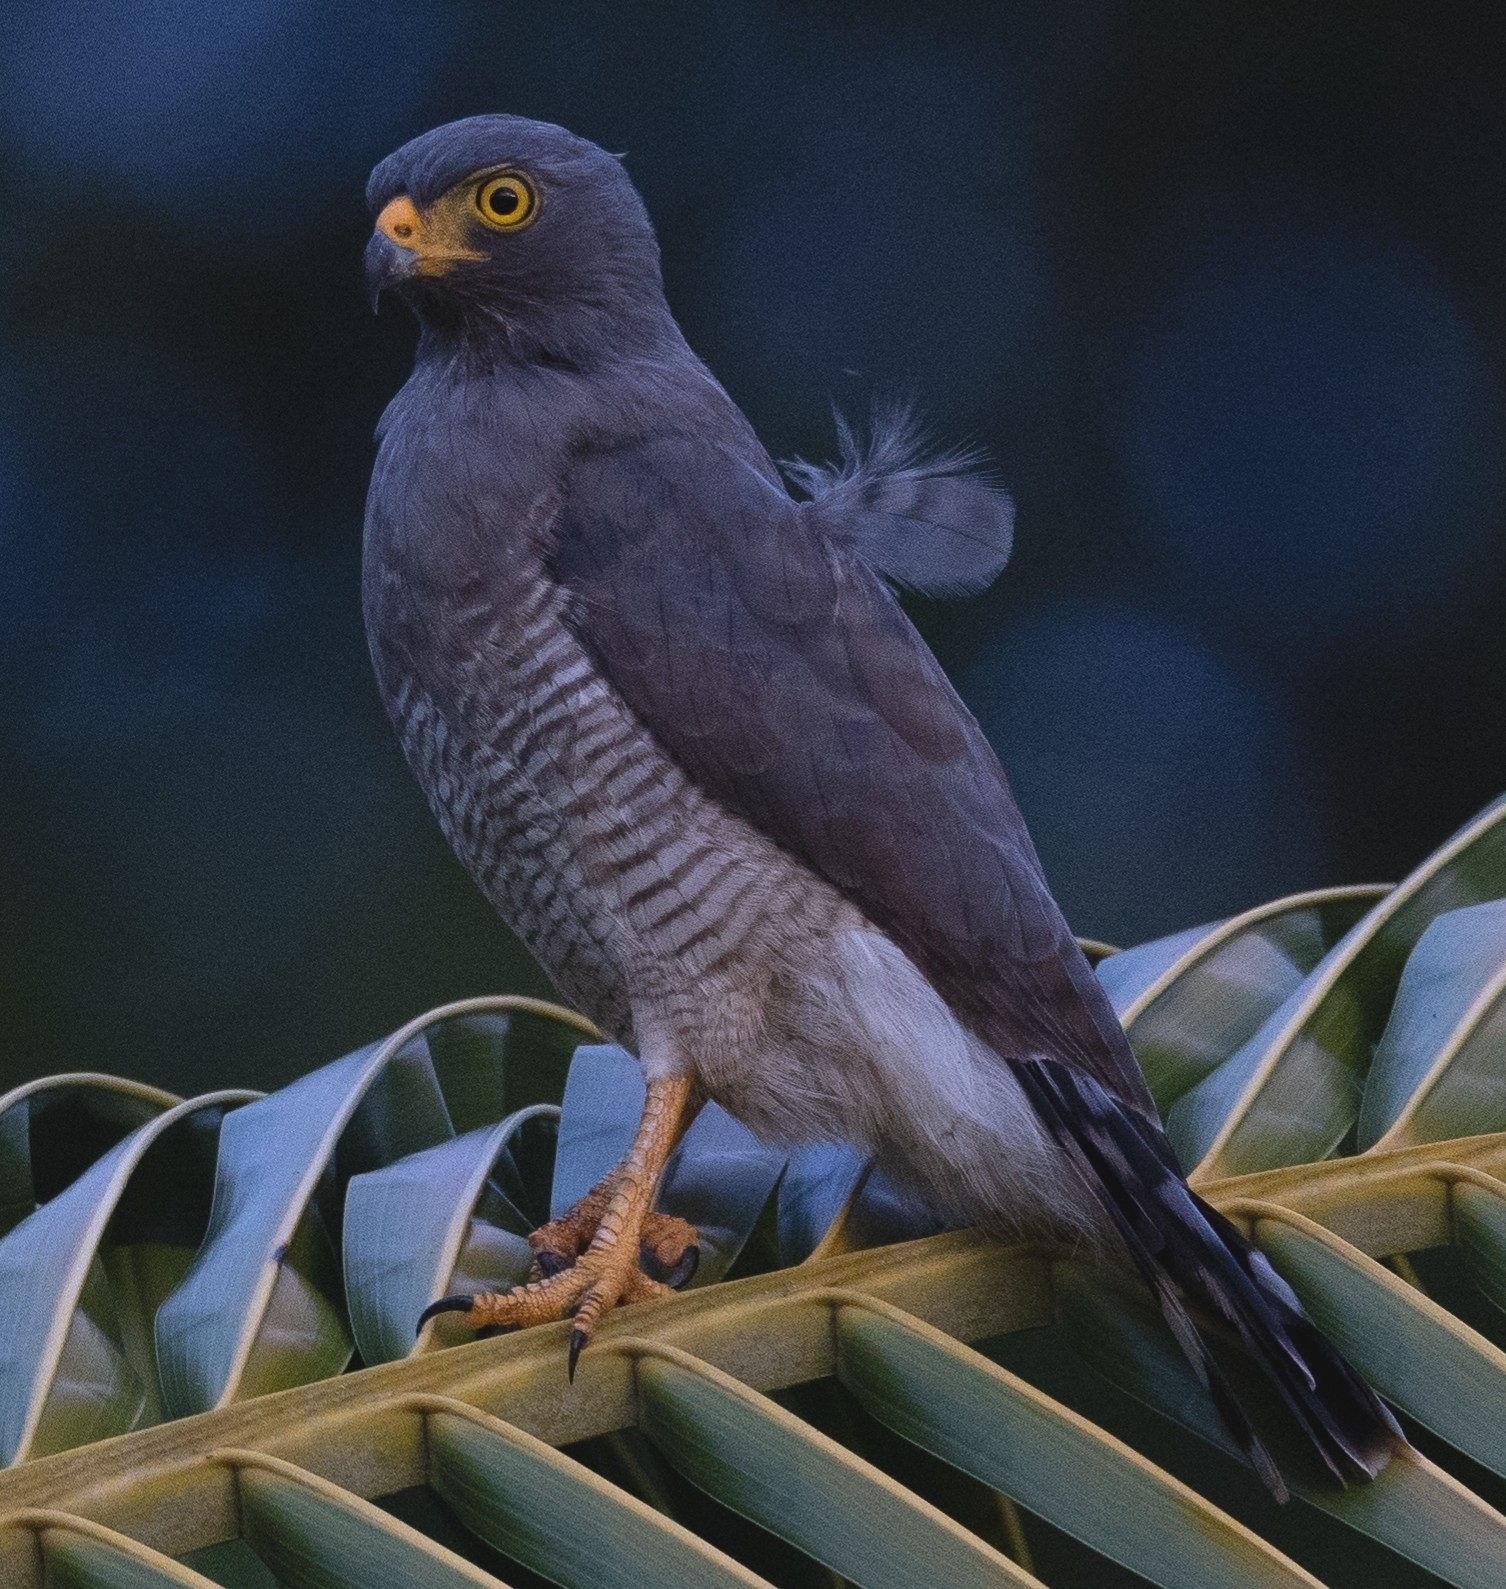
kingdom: Animalia
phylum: Chordata
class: Aves
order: Accipitriformes
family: Accipitridae
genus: Rupornis
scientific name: Rupornis magnirostris
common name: Roadside hawk
